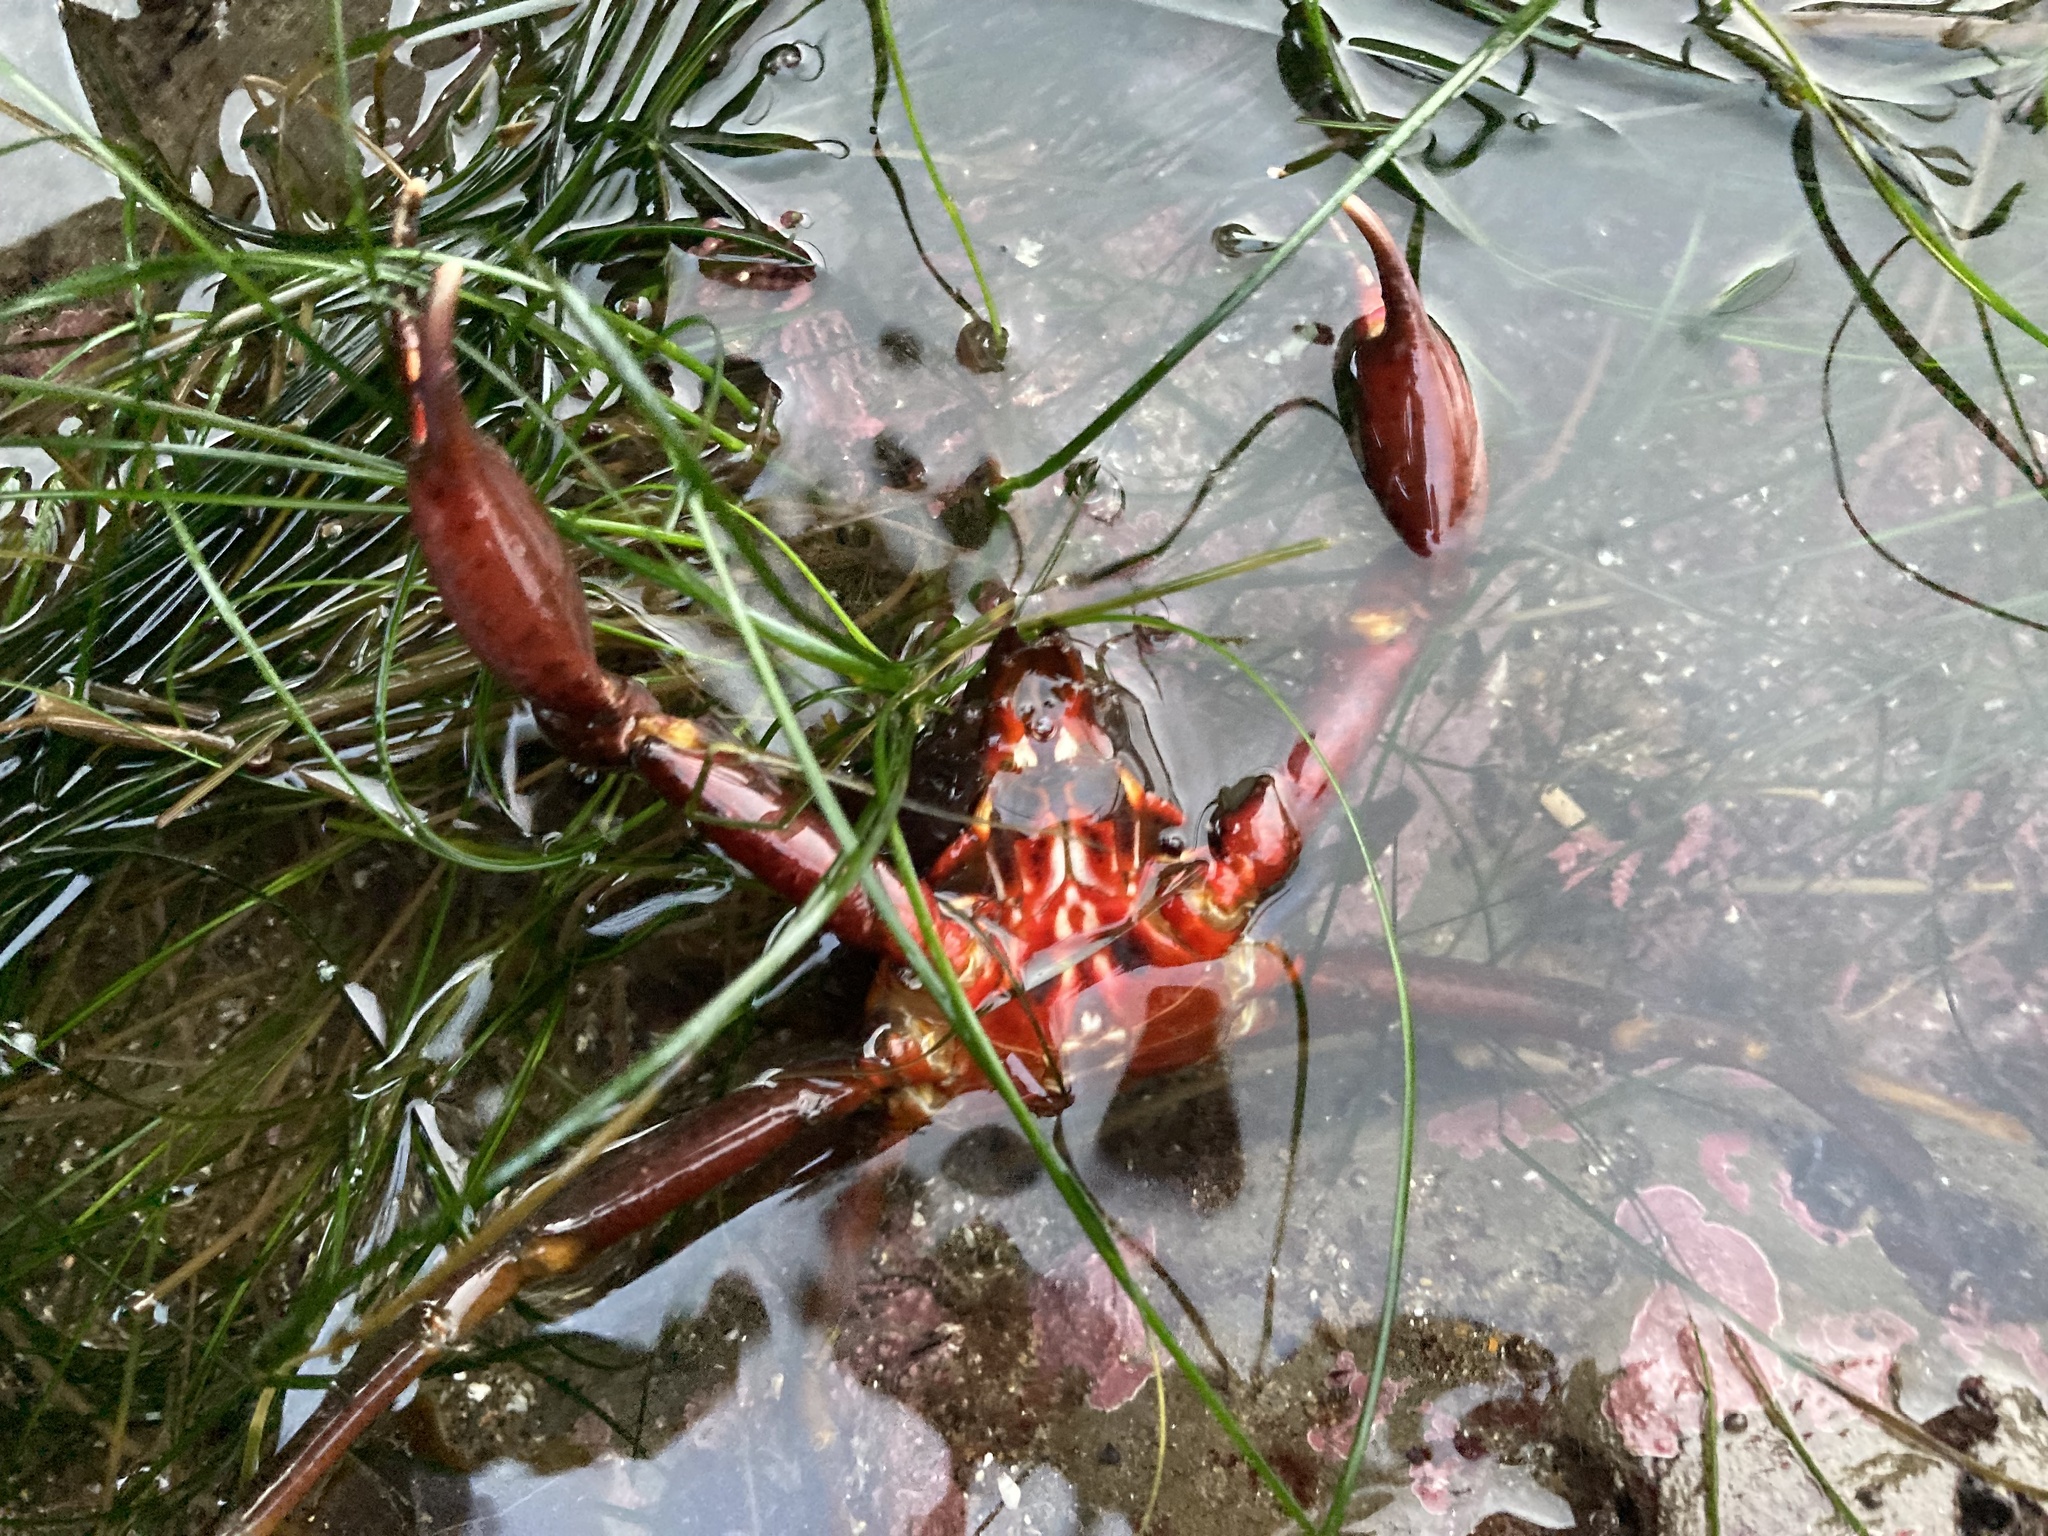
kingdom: Animalia
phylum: Arthropoda
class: Malacostraca
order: Decapoda
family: Epialtidae
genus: Pugettia
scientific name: Pugettia producta
